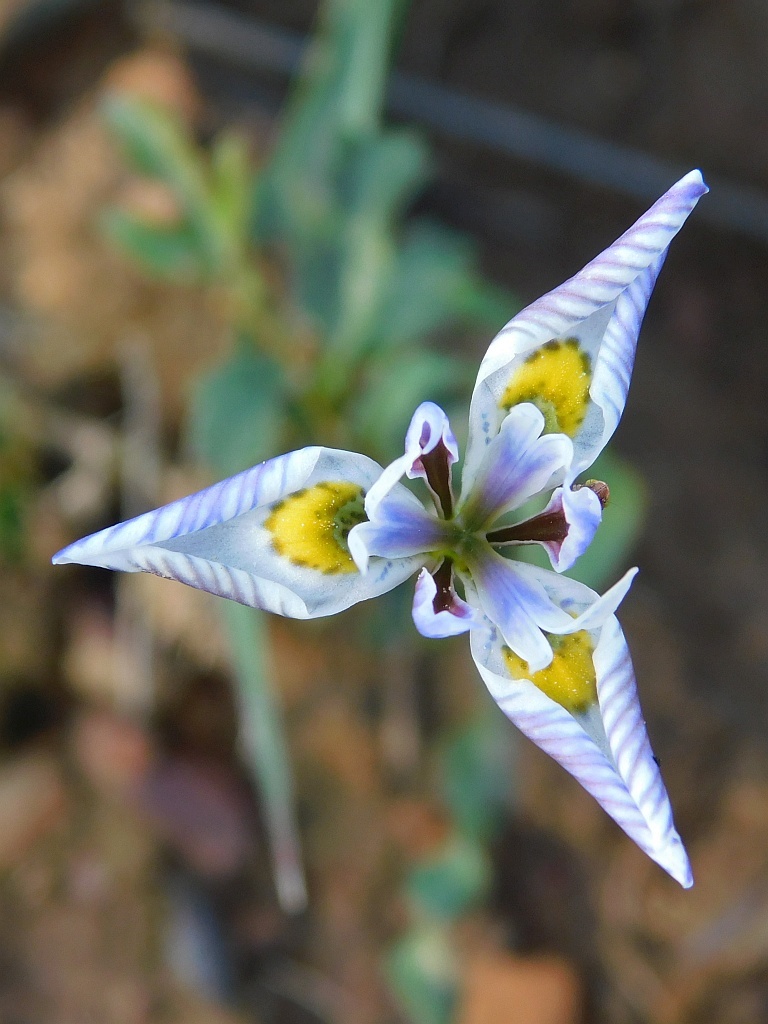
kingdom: Plantae
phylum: Tracheophyta
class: Liliopsida
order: Asparagales
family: Iridaceae
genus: Moraea
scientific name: Moraea fergusoniae
